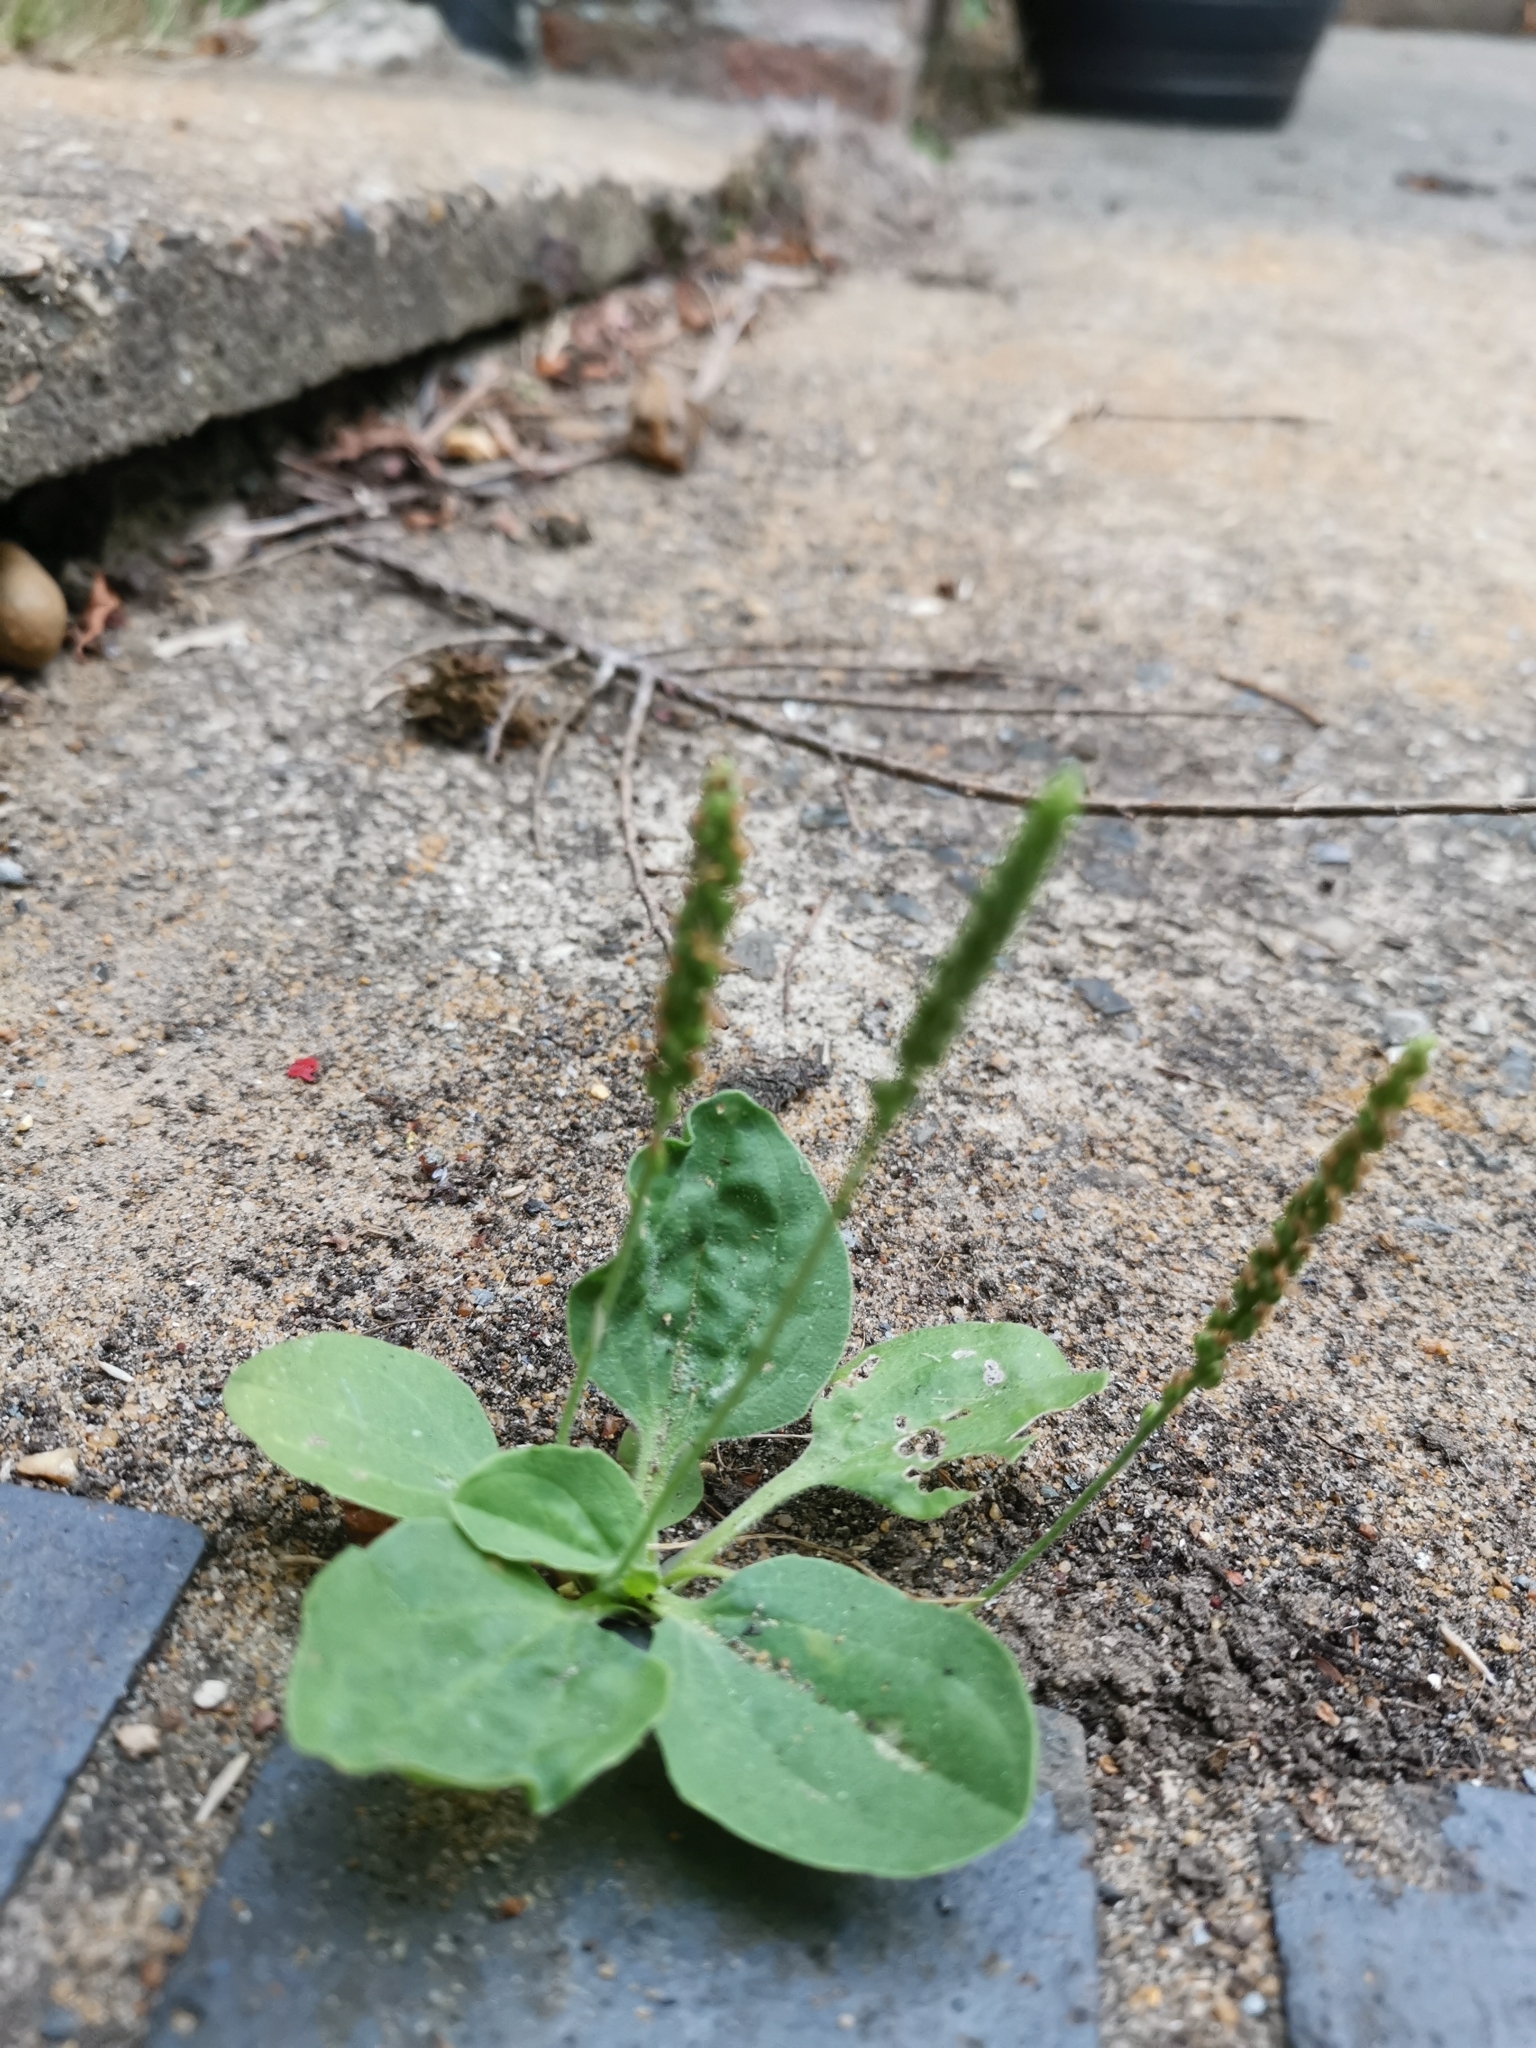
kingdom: Plantae
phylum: Tracheophyta
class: Magnoliopsida
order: Lamiales
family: Plantaginaceae
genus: Plantago
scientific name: Plantago major
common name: Common plantain
